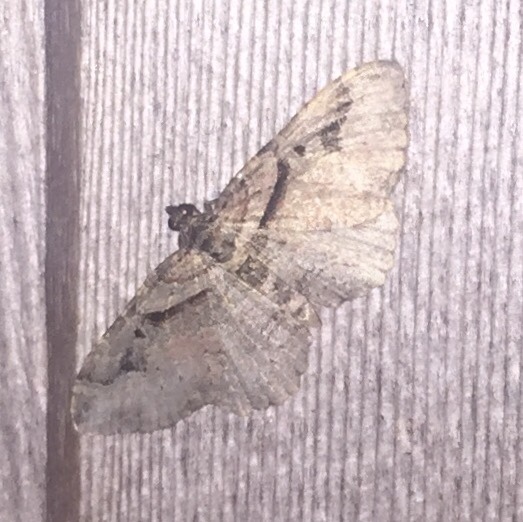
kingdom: Animalia
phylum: Arthropoda
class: Insecta
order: Lepidoptera
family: Geometridae
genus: Costaconvexa
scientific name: Costaconvexa centrostrigaria
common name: Bent-line carpet
